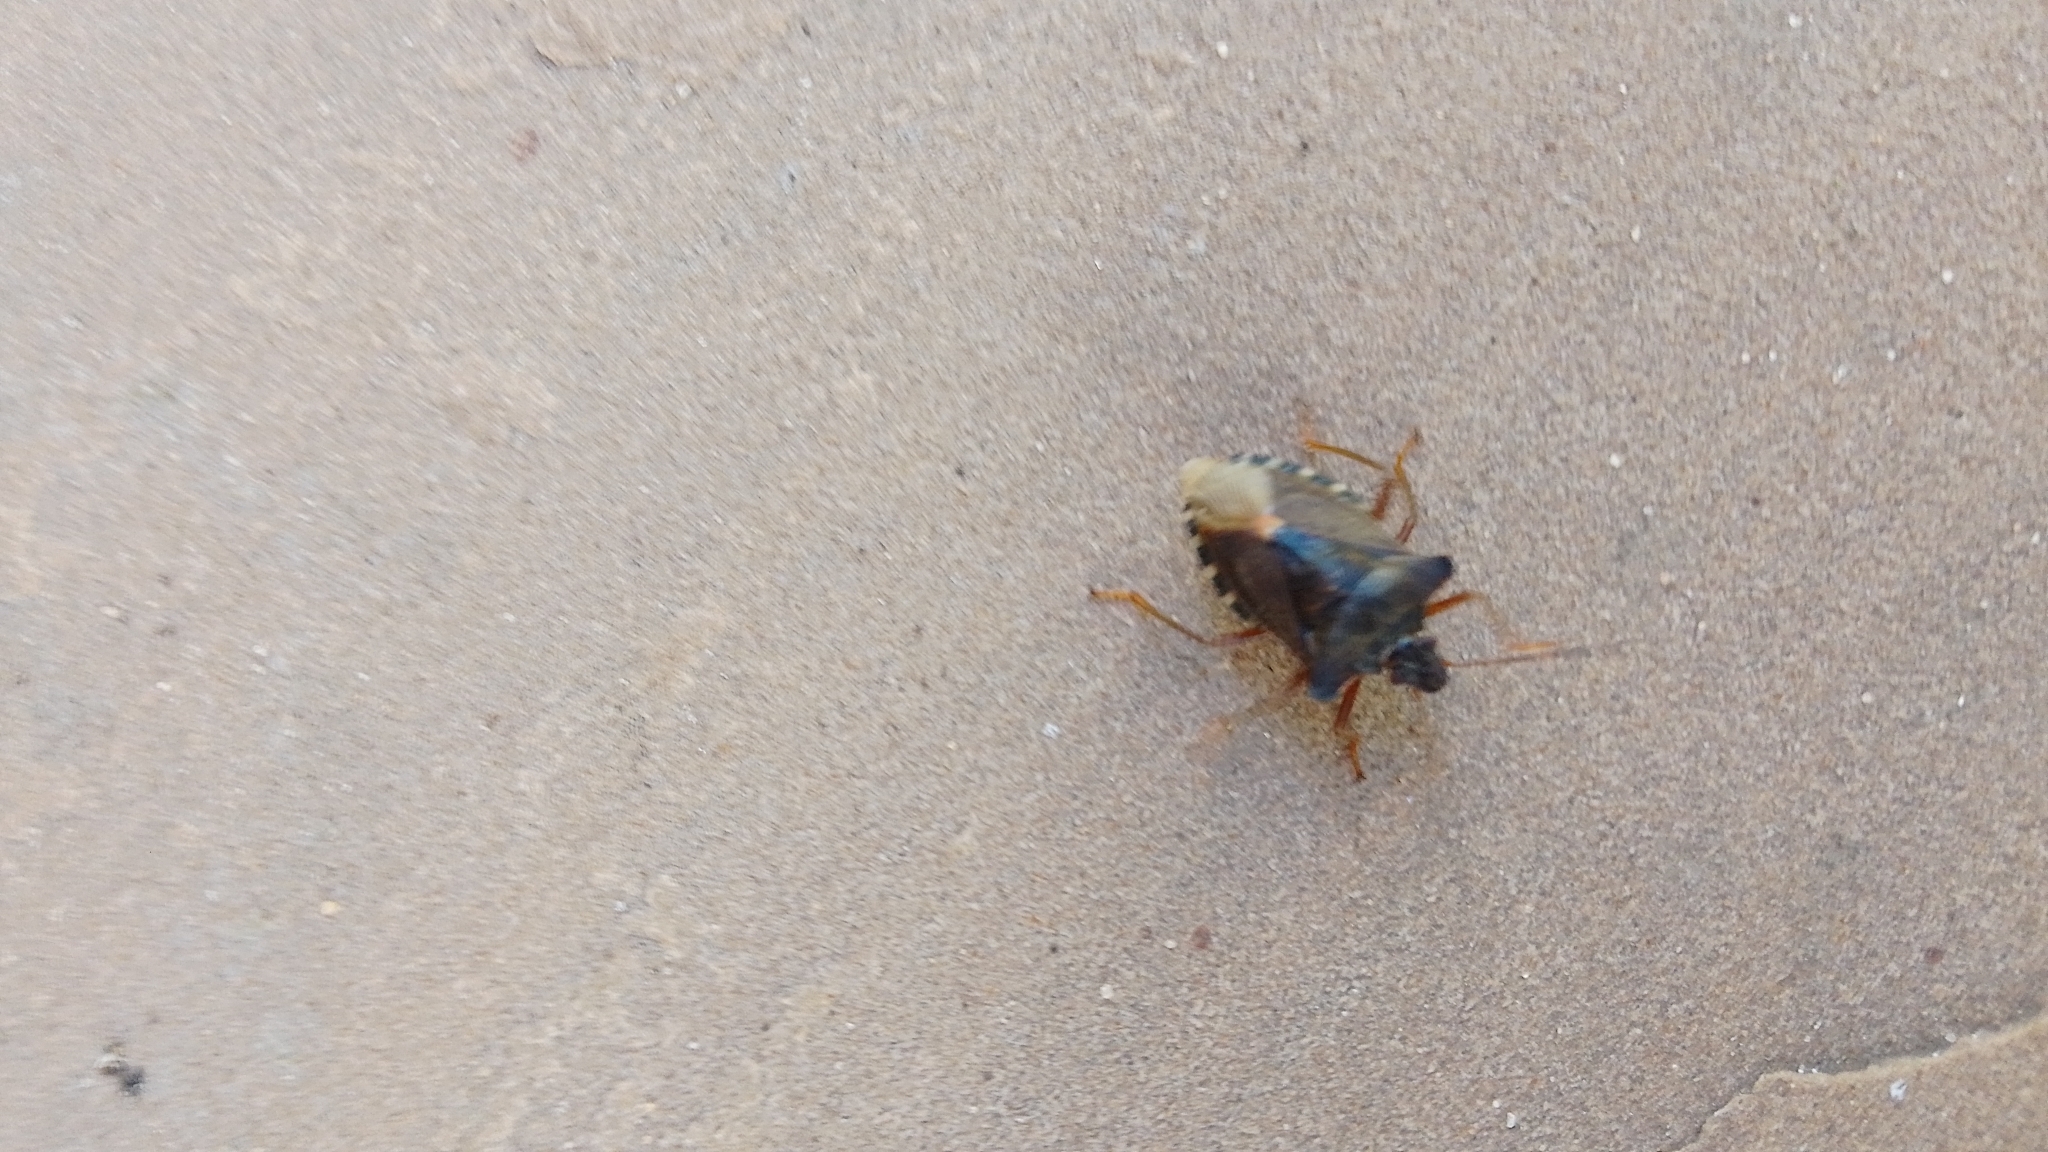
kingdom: Animalia
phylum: Arthropoda
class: Insecta
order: Hemiptera
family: Pentatomidae
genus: Pentatoma
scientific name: Pentatoma rufipes
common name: Forest bug
